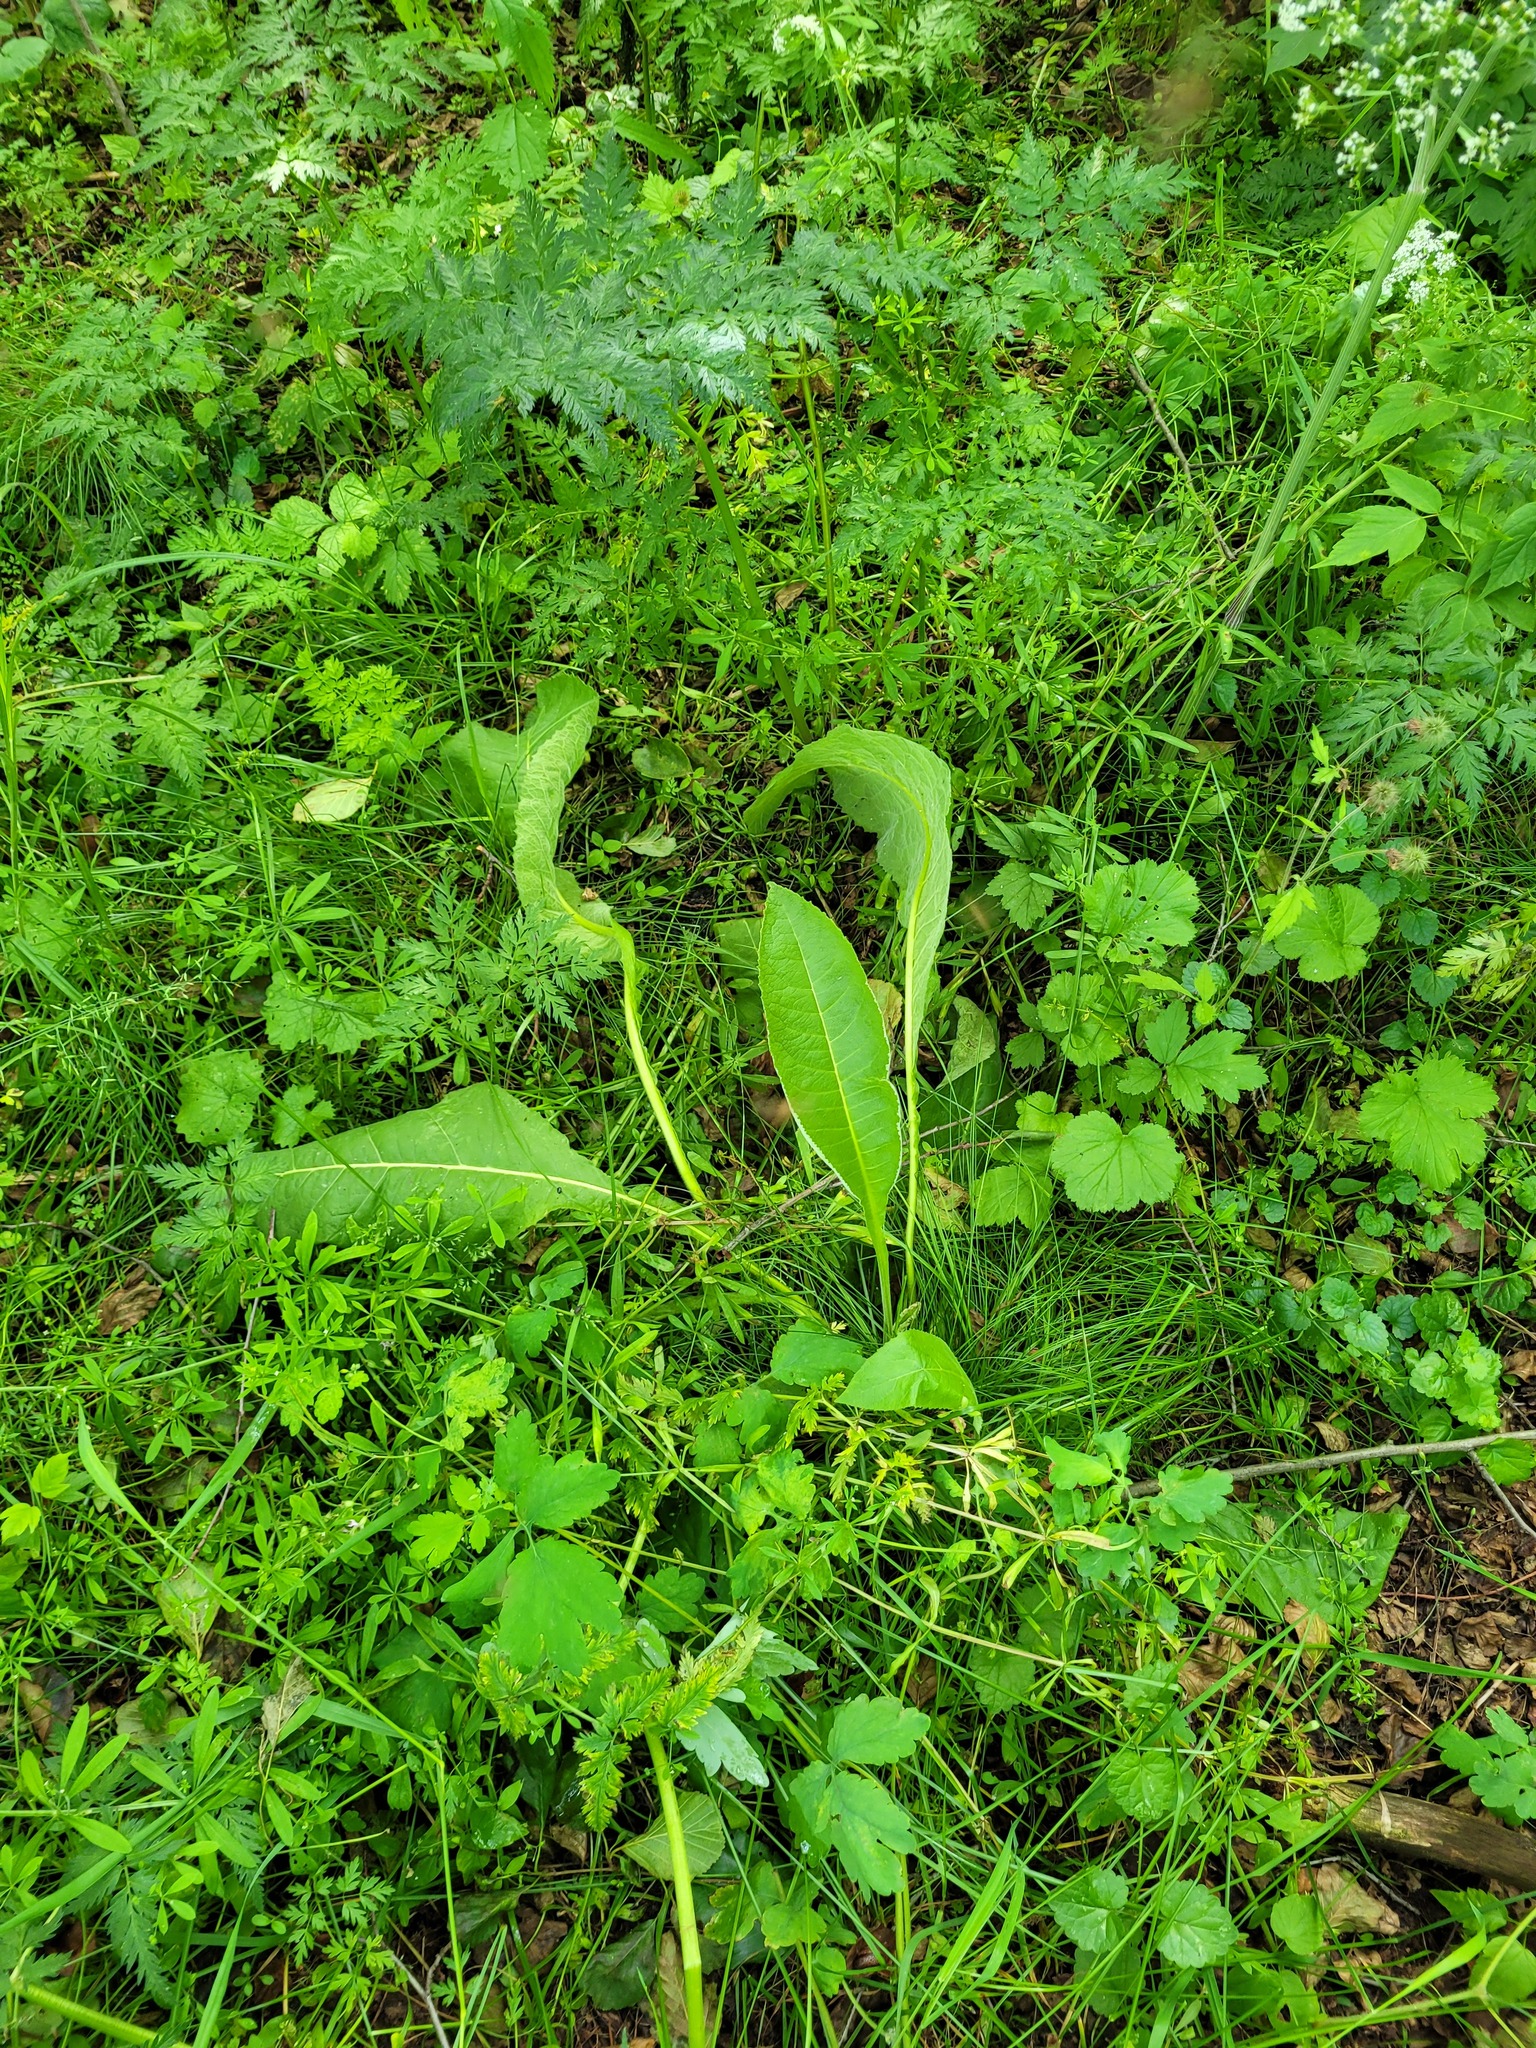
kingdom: Plantae
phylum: Tracheophyta
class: Magnoliopsida
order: Asterales
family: Asteraceae
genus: Inula
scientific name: Inula helenium
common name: Elecampane
